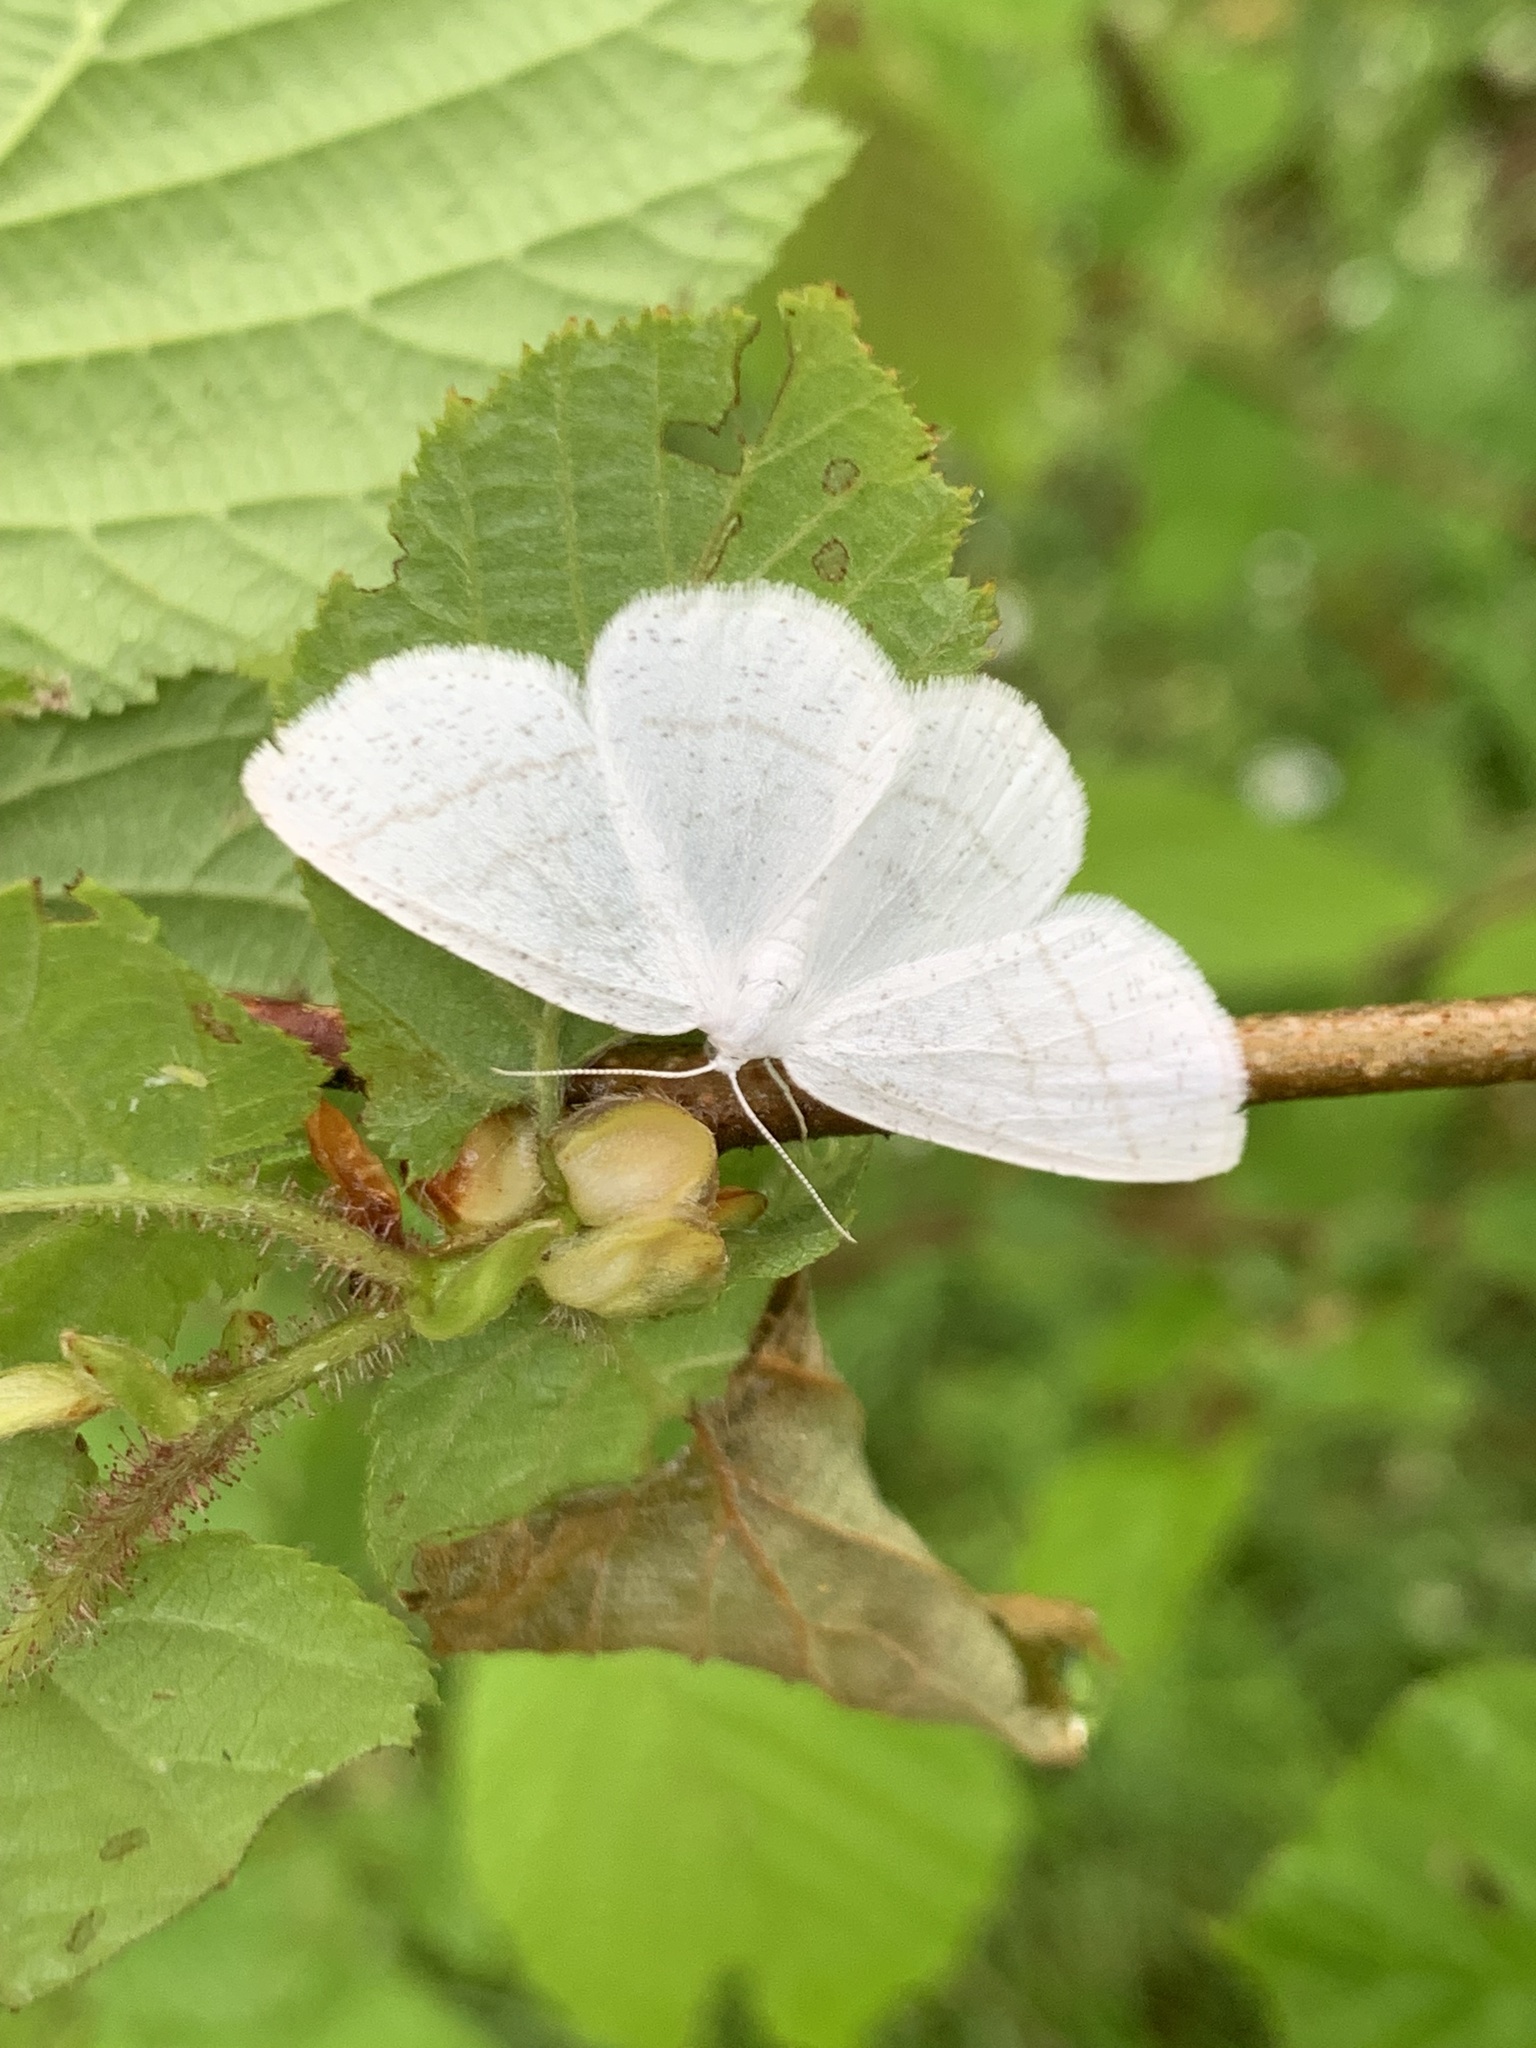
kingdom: Animalia
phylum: Arthropoda
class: Insecta
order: Lepidoptera
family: Geometridae
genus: Cabera
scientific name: Cabera pusaria
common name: Common white wave
